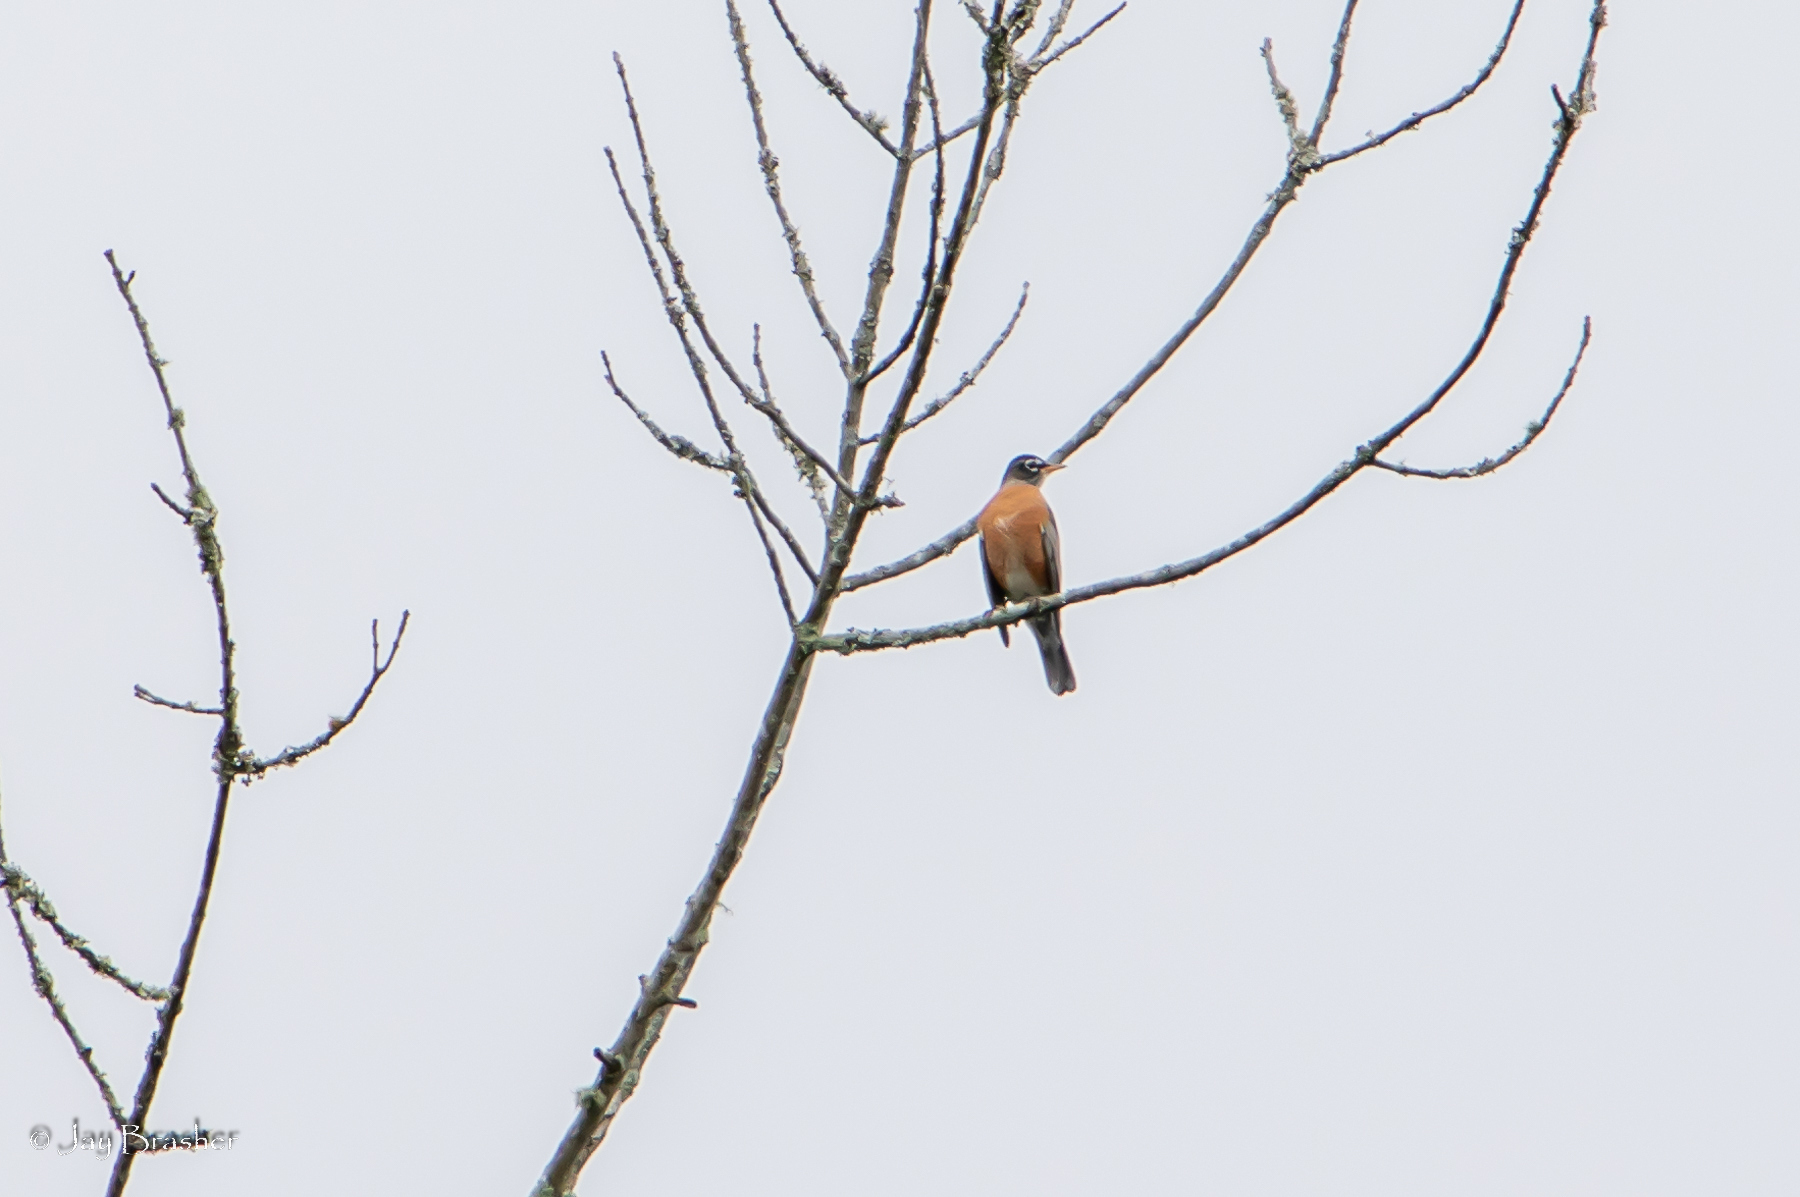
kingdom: Animalia
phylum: Chordata
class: Aves
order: Passeriformes
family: Turdidae
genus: Turdus
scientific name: Turdus migratorius
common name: American robin
